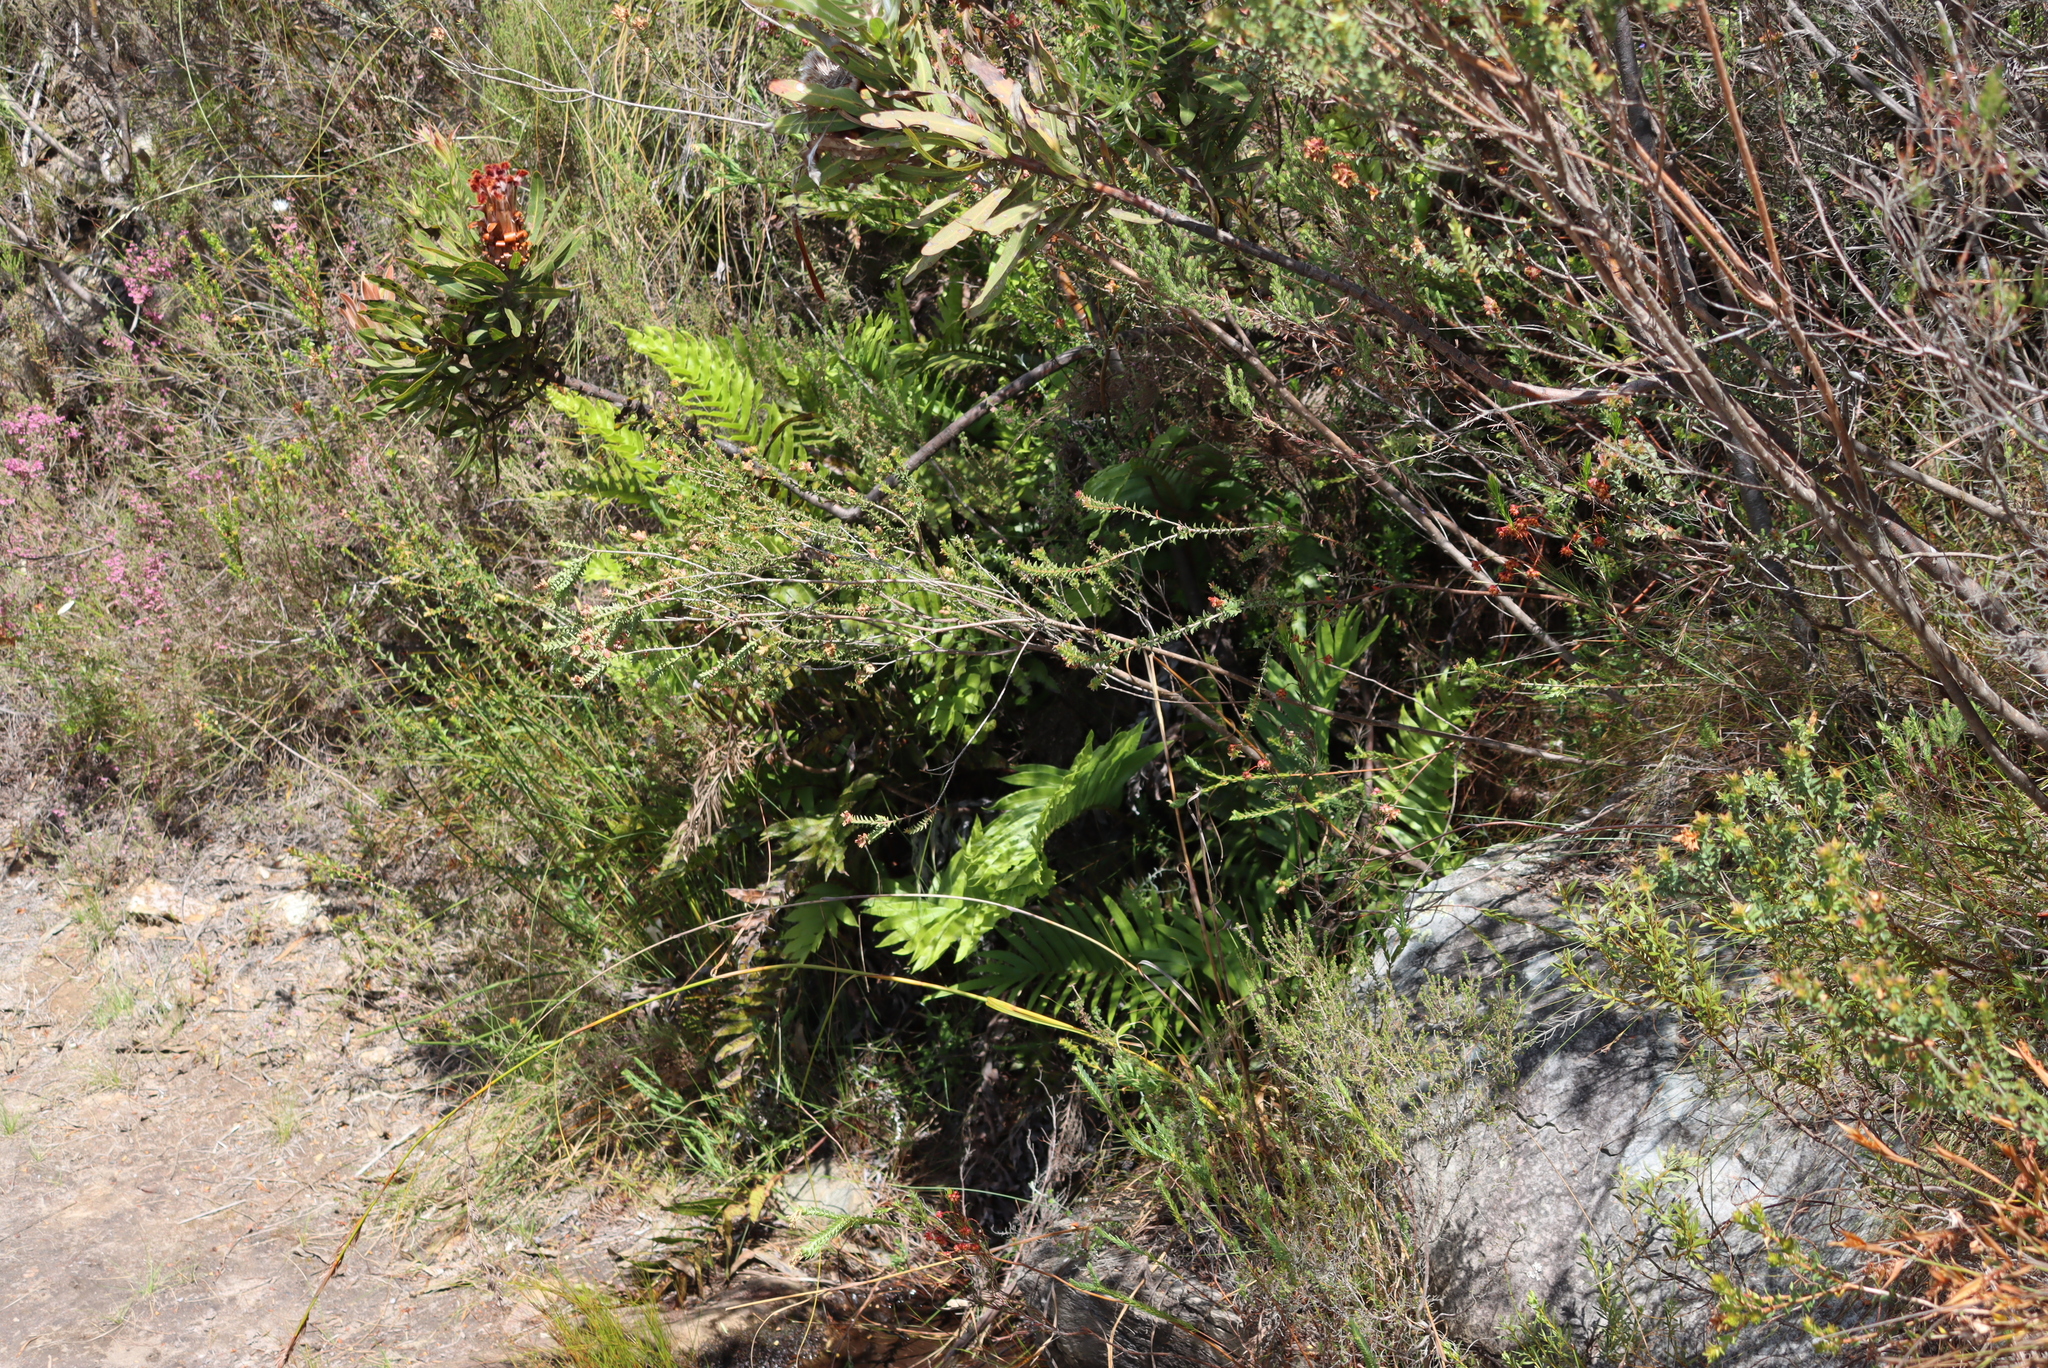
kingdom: Plantae
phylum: Tracheophyta
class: Polypodiopsida
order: Polypodiales
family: Blechnaceae
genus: Lomariocycas
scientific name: Lomariocycas tabularis
